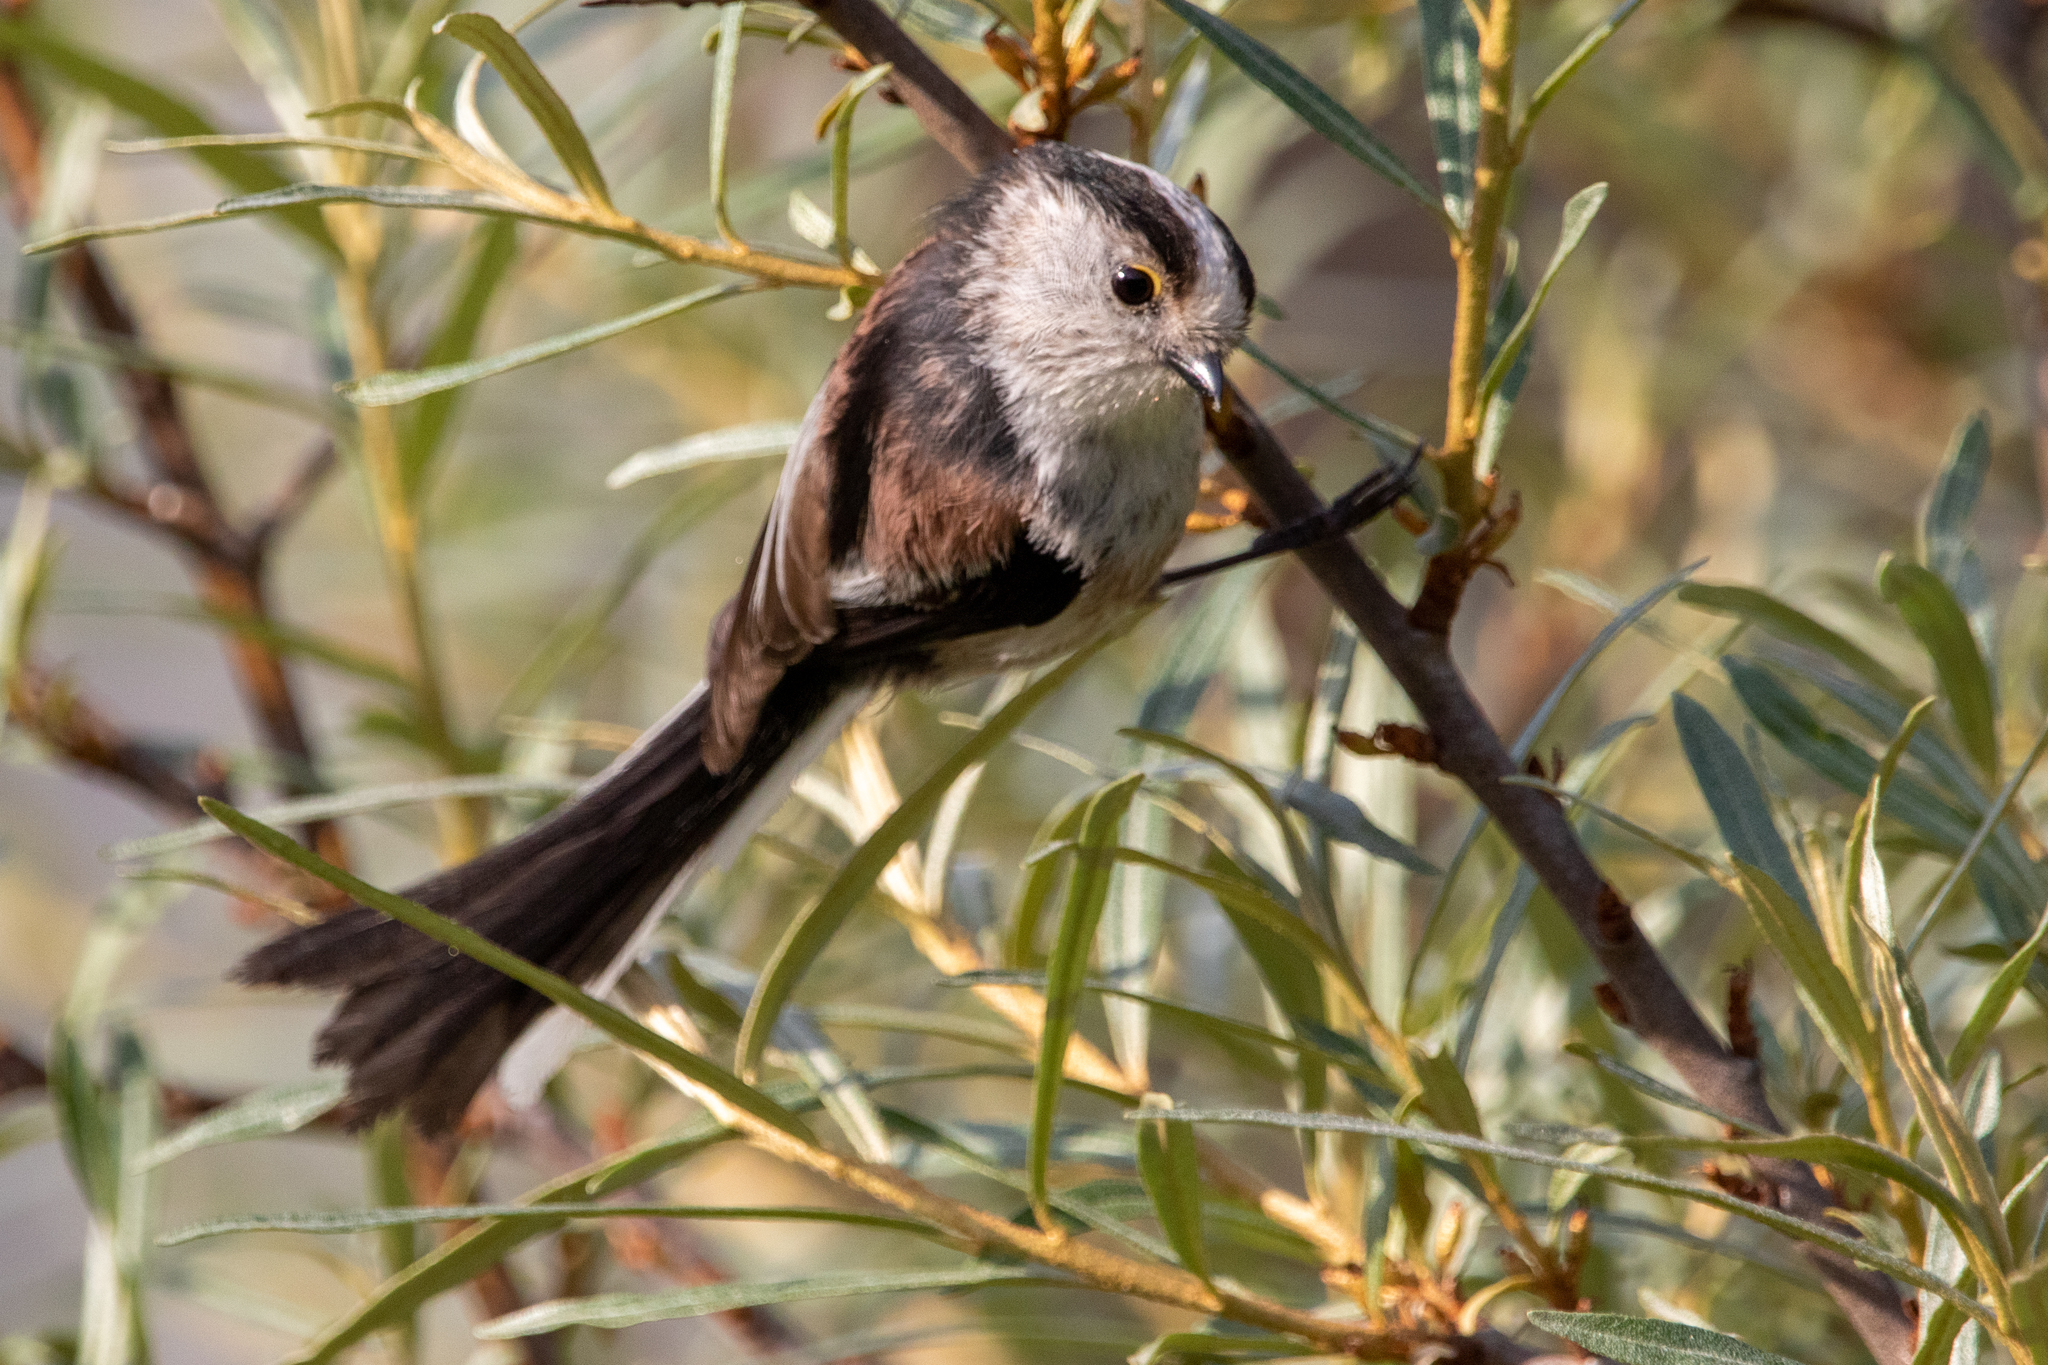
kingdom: Animalia
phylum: Chordata
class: Aves
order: Passeriformes
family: Aegithalidae
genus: Aegithalos
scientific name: Aegithalos caudatus
